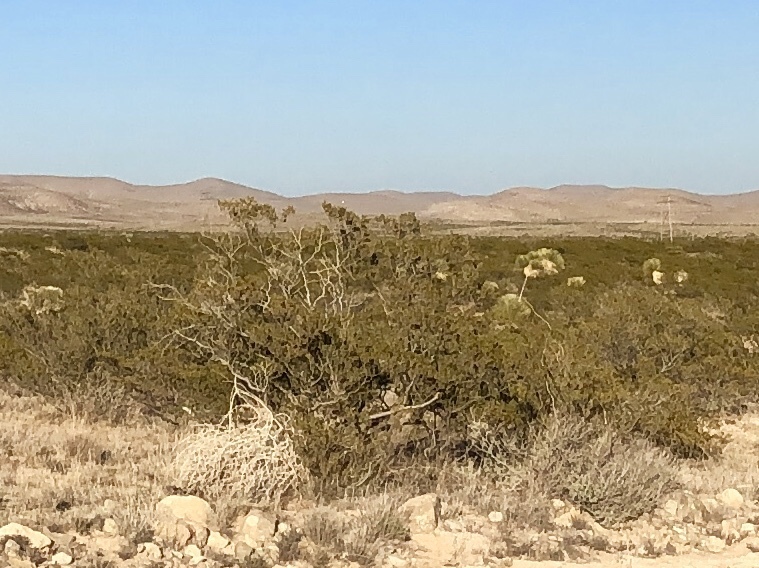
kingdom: Plantae
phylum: Tracheophyta
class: Magnoliopsida
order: Zygophyllales
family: Zygophyllaceae
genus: Larrea
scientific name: Larrea tridentata
